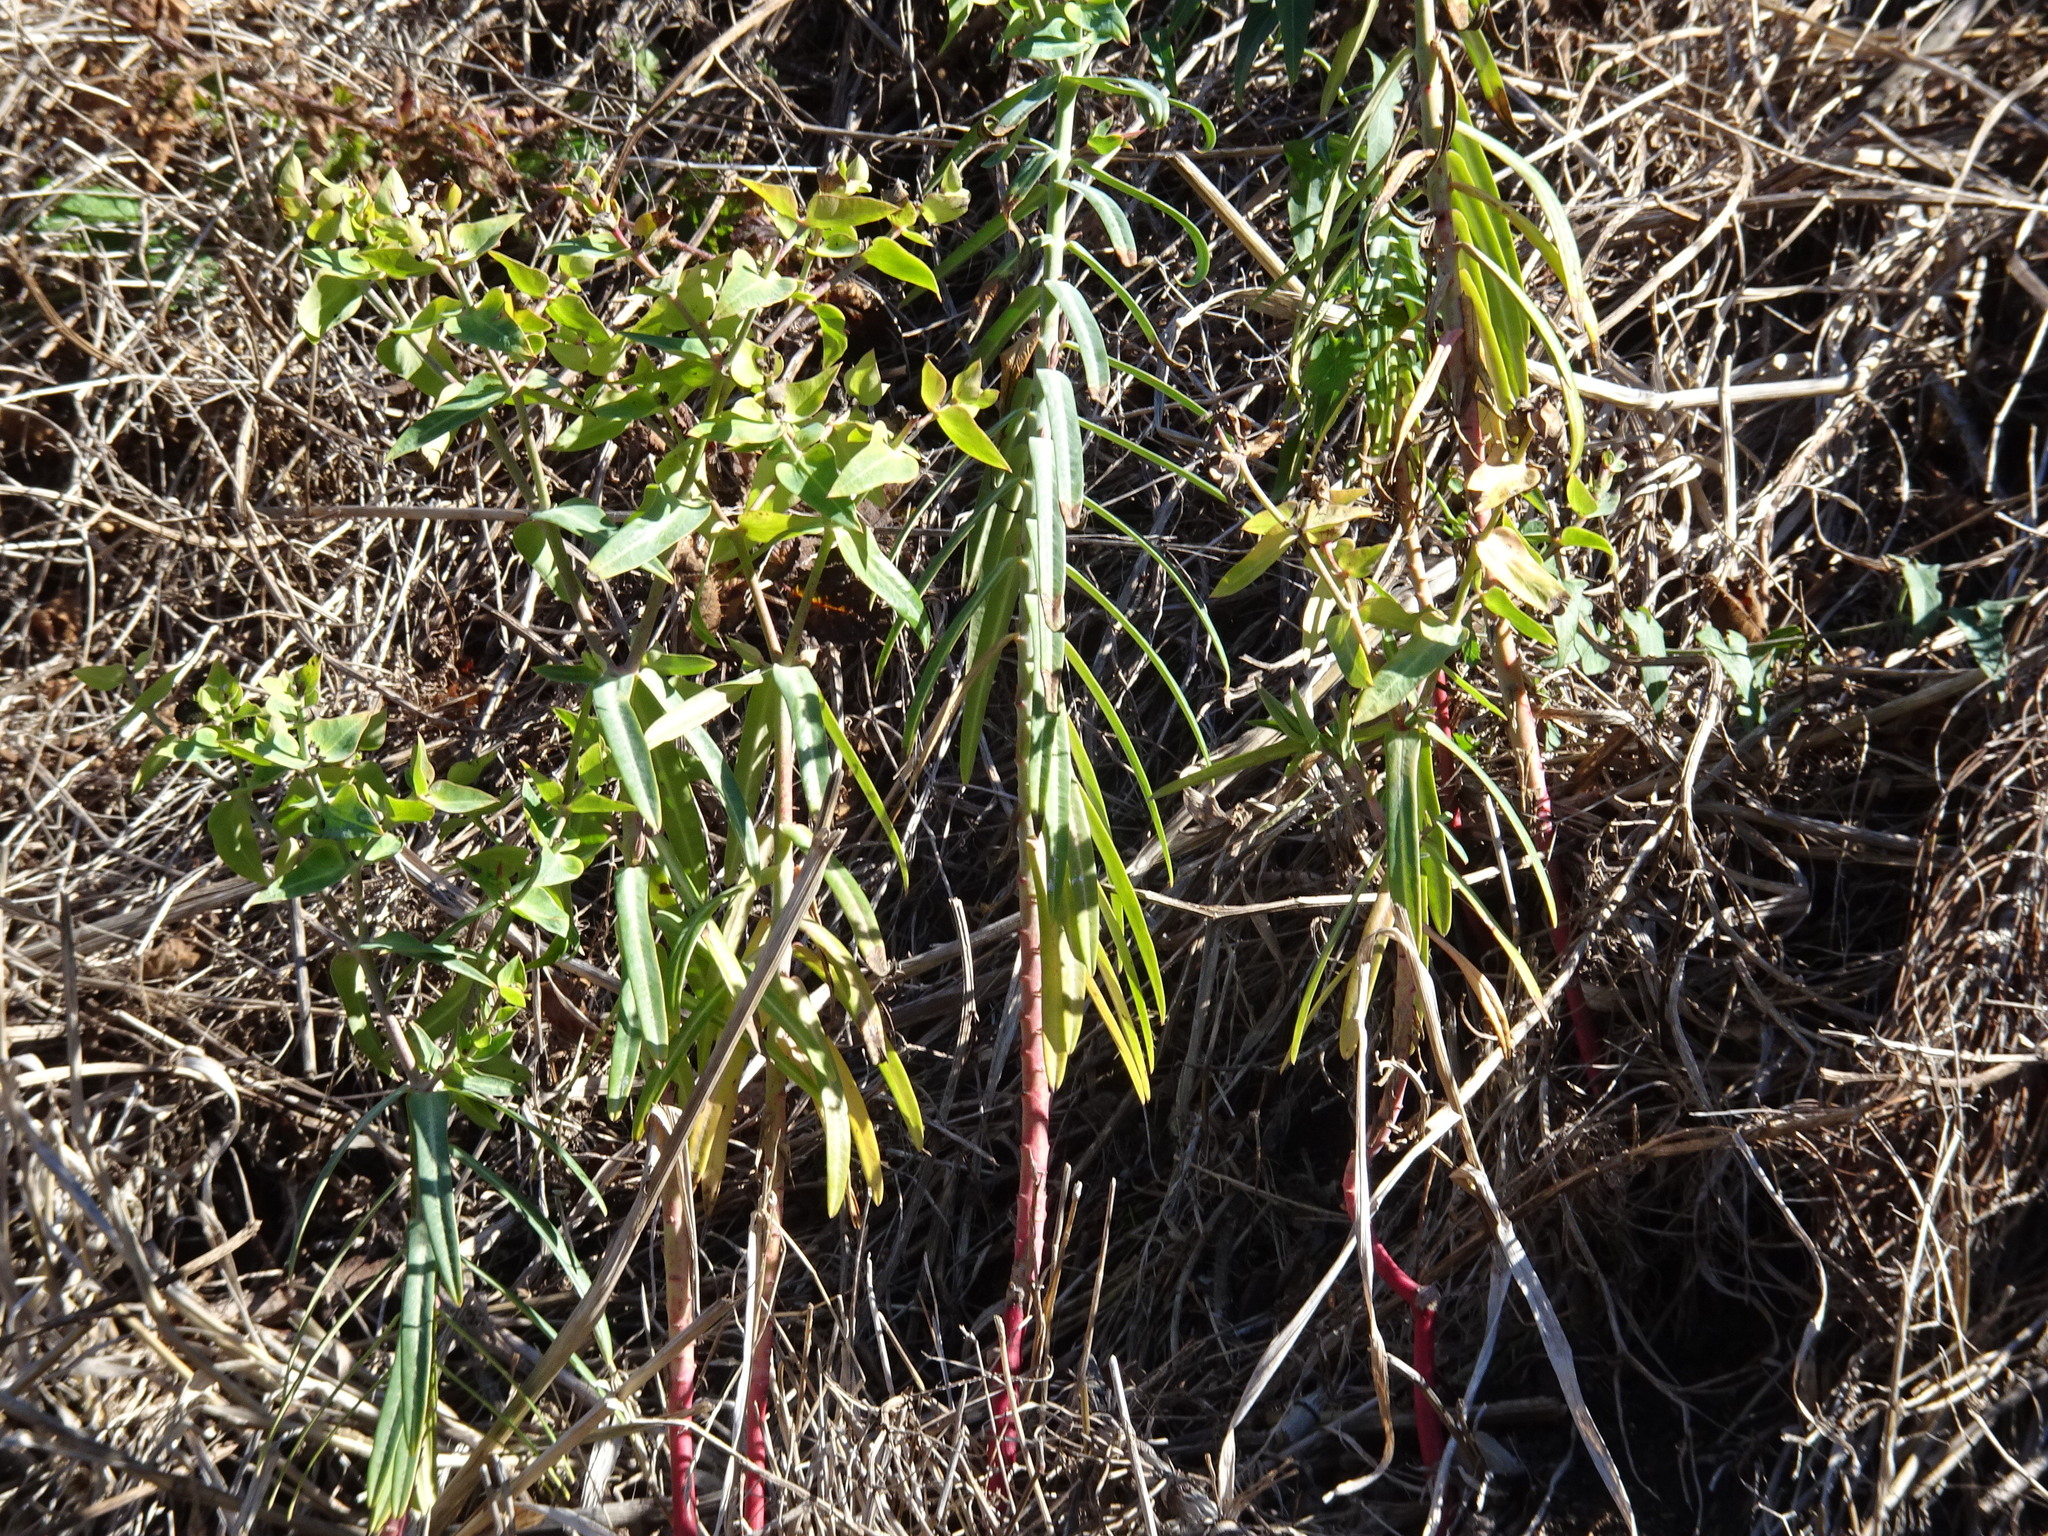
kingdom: Plantae
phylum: Tracheophyta
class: Magnoliopsida
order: Malpighiales
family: Euphorbiaceae
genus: Euphorbia
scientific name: Euphorbia lathyris
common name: Caper spurge
